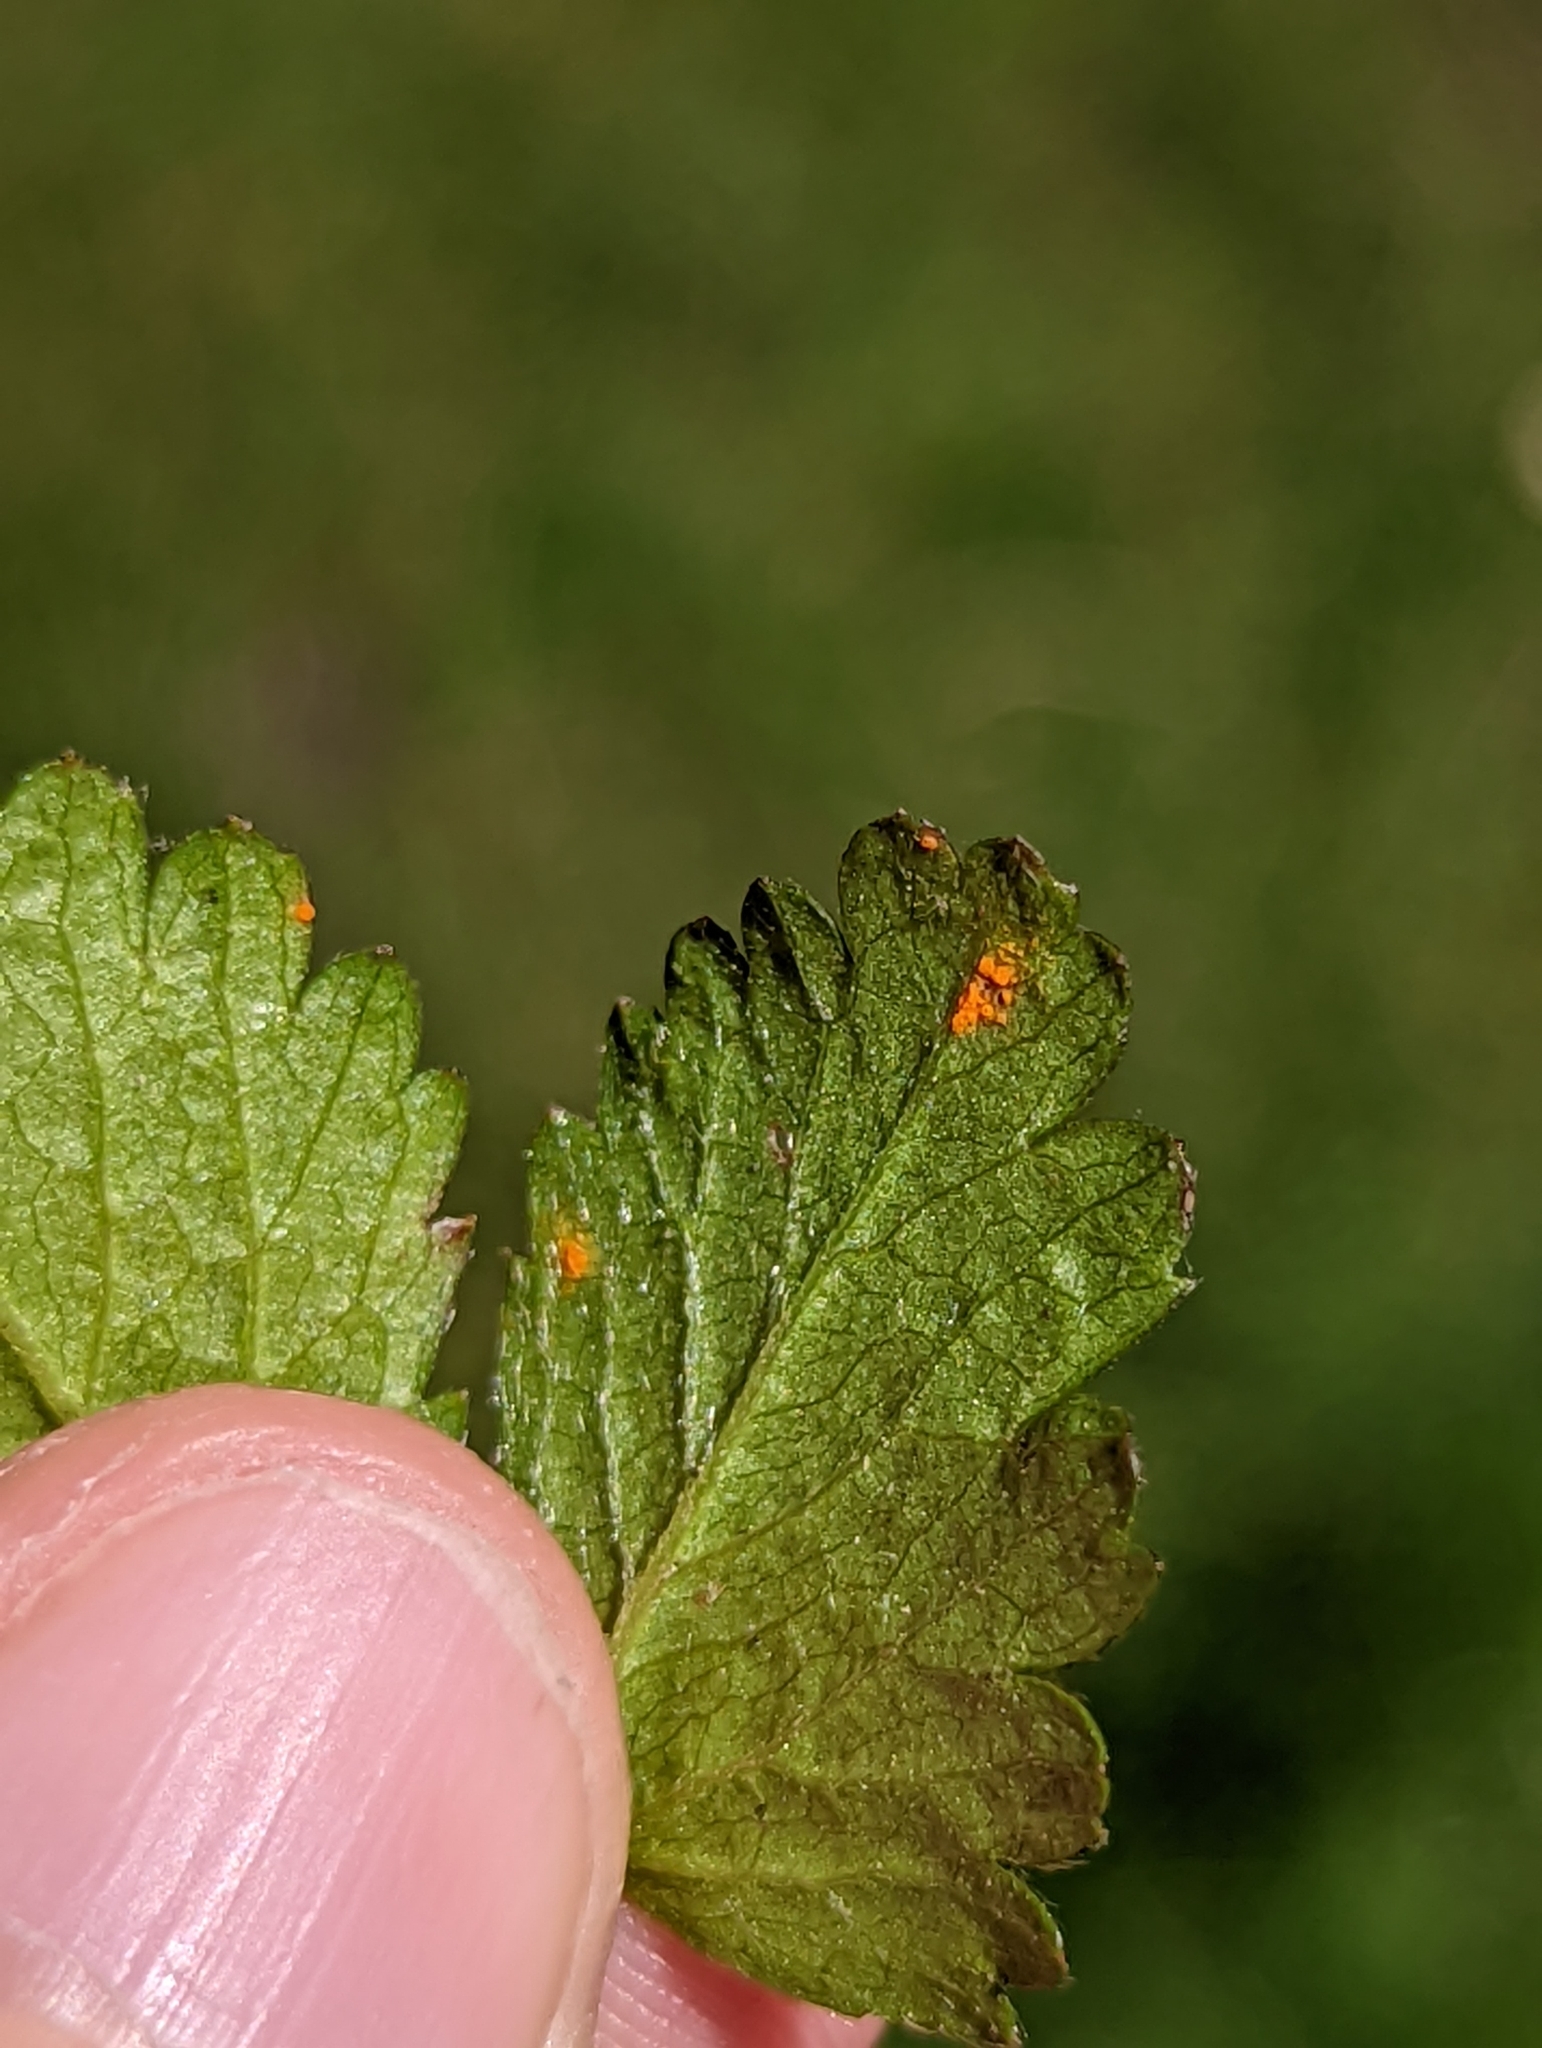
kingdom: Fungi
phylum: Basidiomycota
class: Pucciniomycetes
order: Pucciniales
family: Phragmidiaceae
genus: Phragmidium
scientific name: Phragmidium mexicanum
